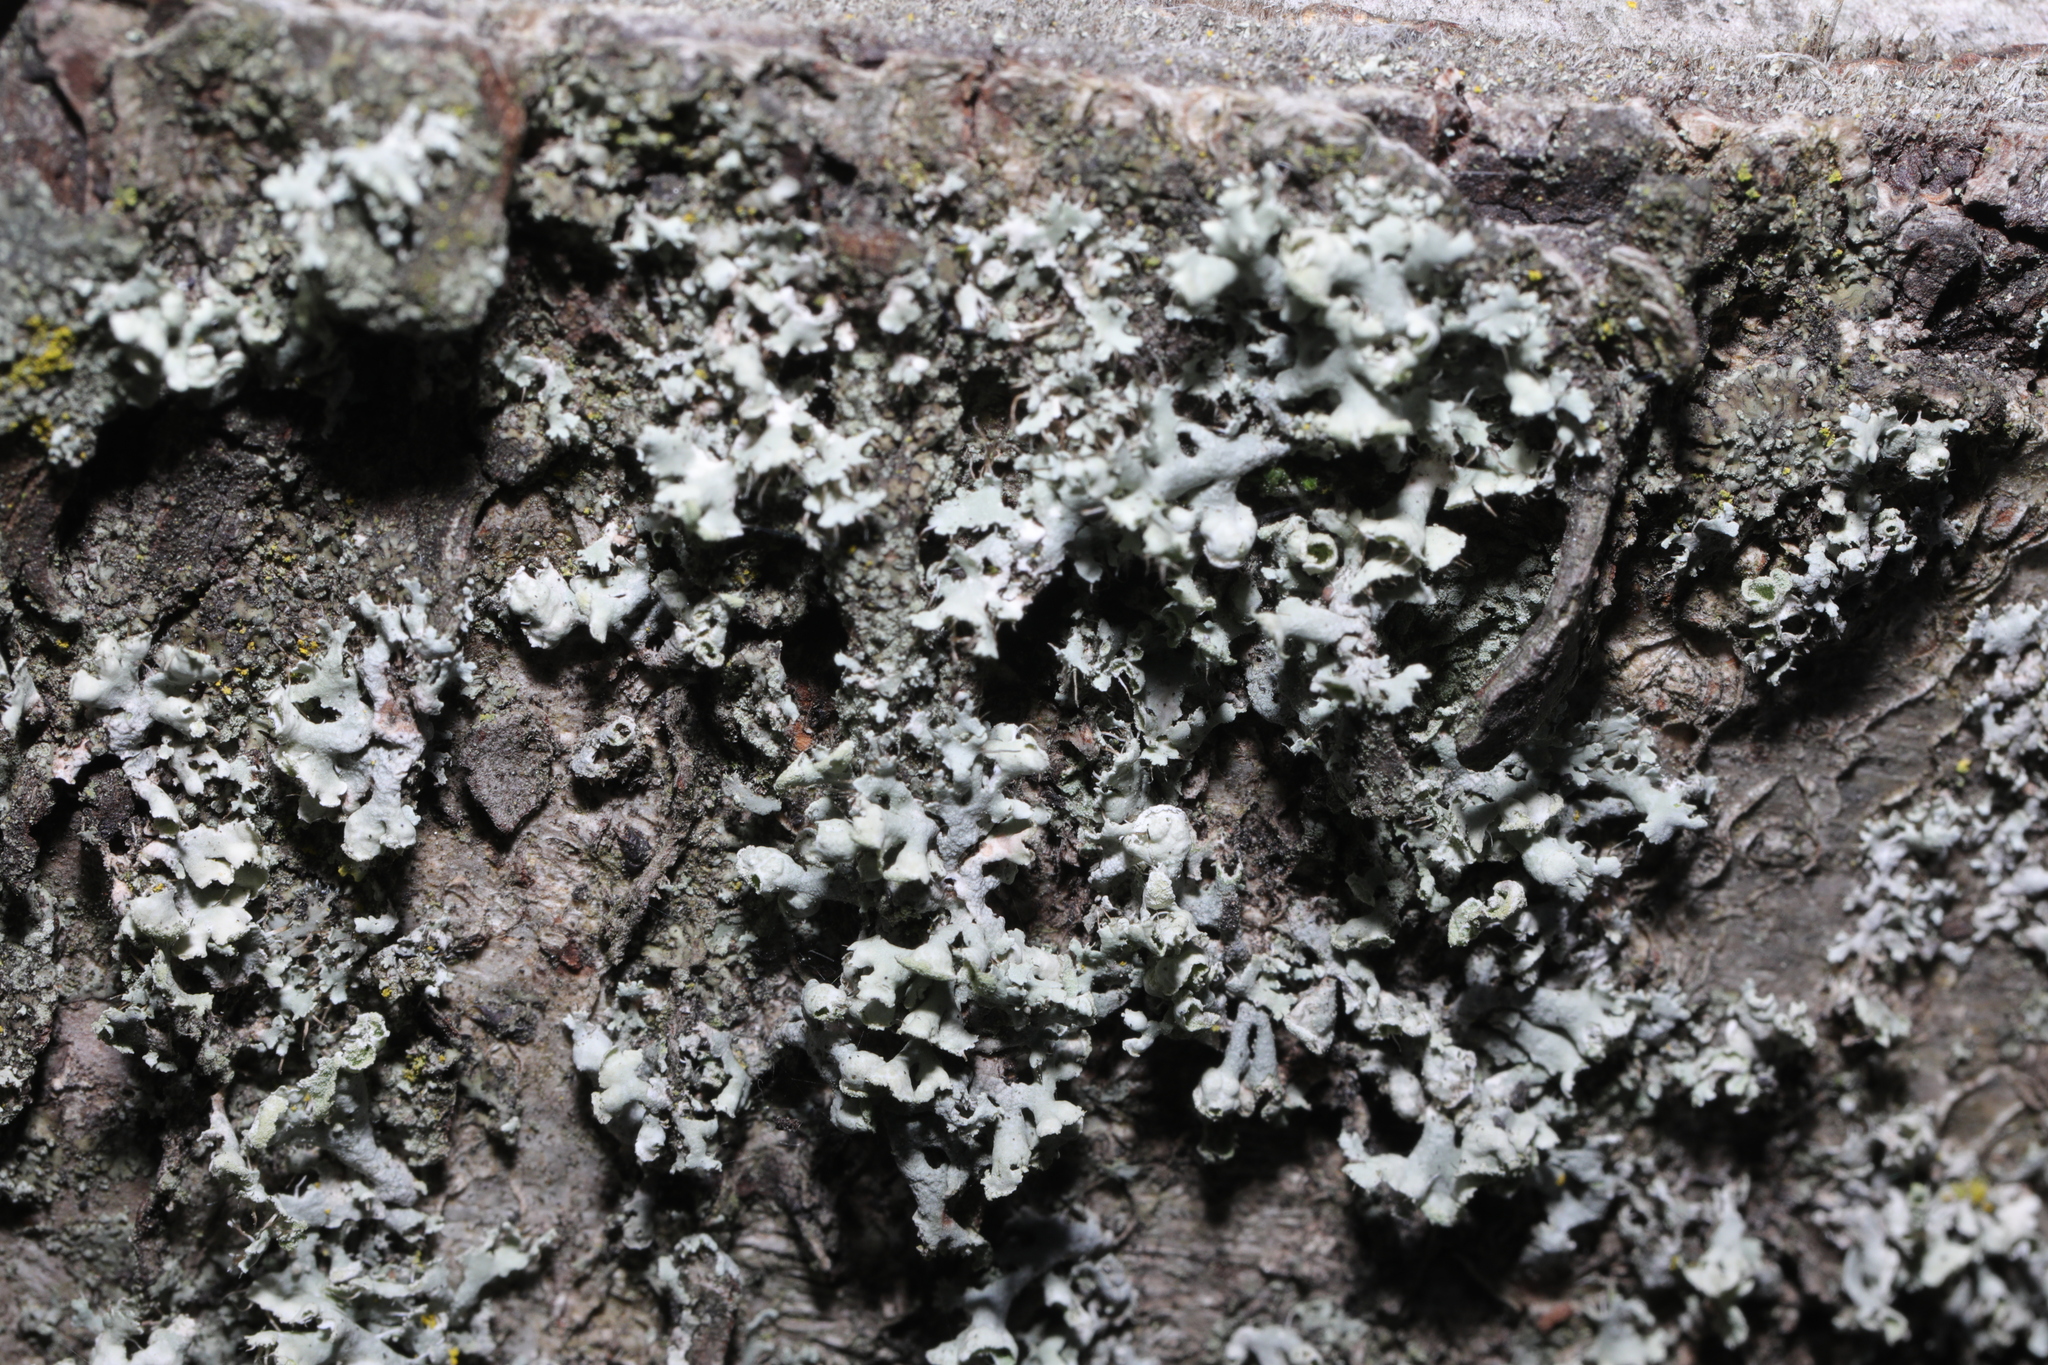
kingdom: Fungi
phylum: Ascomycota
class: Lecanoromycetes
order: Caliciales
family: Physciaceae
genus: Physcia
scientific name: Physcia adscendens
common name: Hooded rosette lichen
